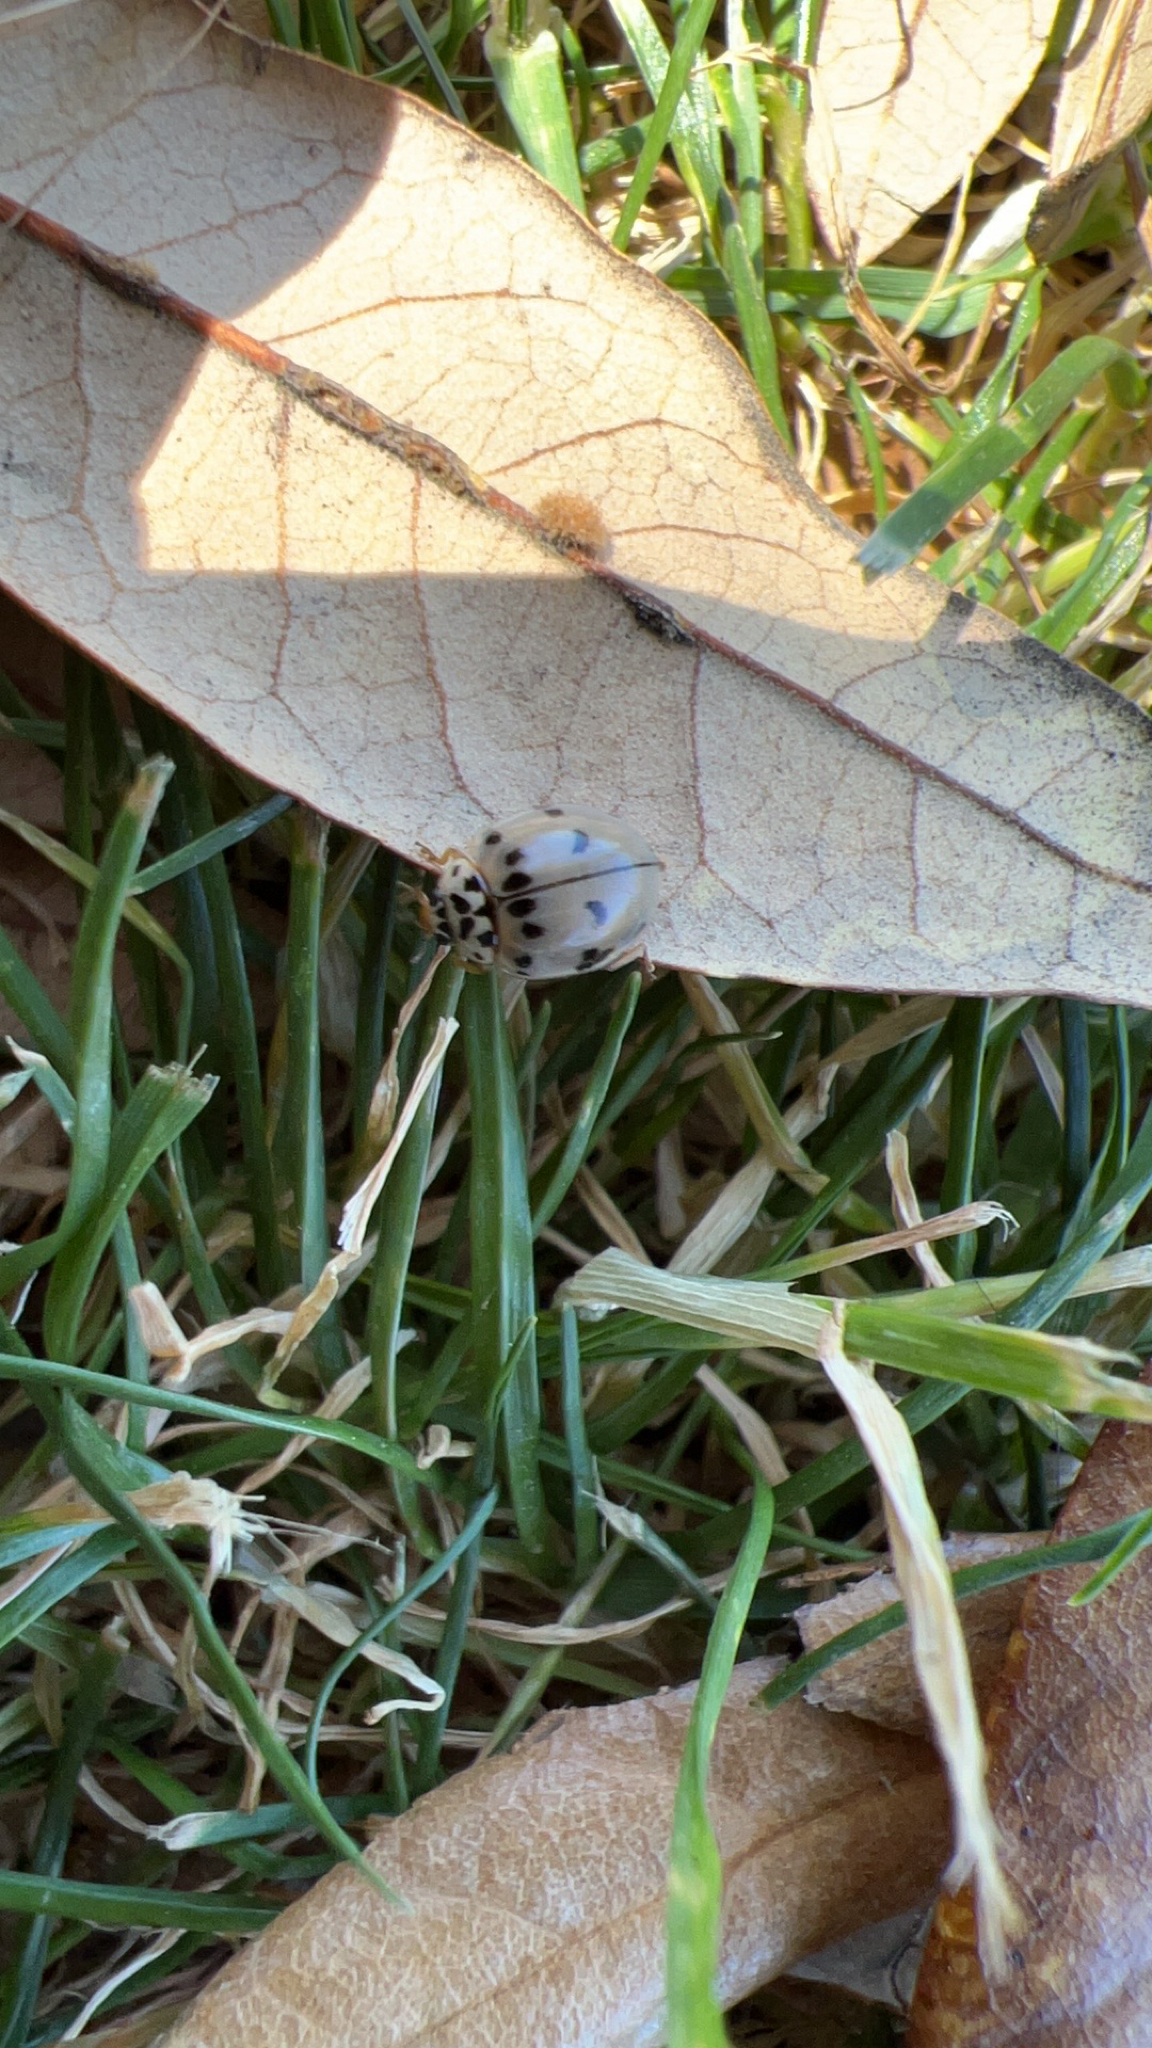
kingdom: Animalia
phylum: Arthropoda
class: Insecta
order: Coleoptera
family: Coccinellidae
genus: Olla
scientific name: Olla v-nigrum
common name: Ashy gray lady beetle
